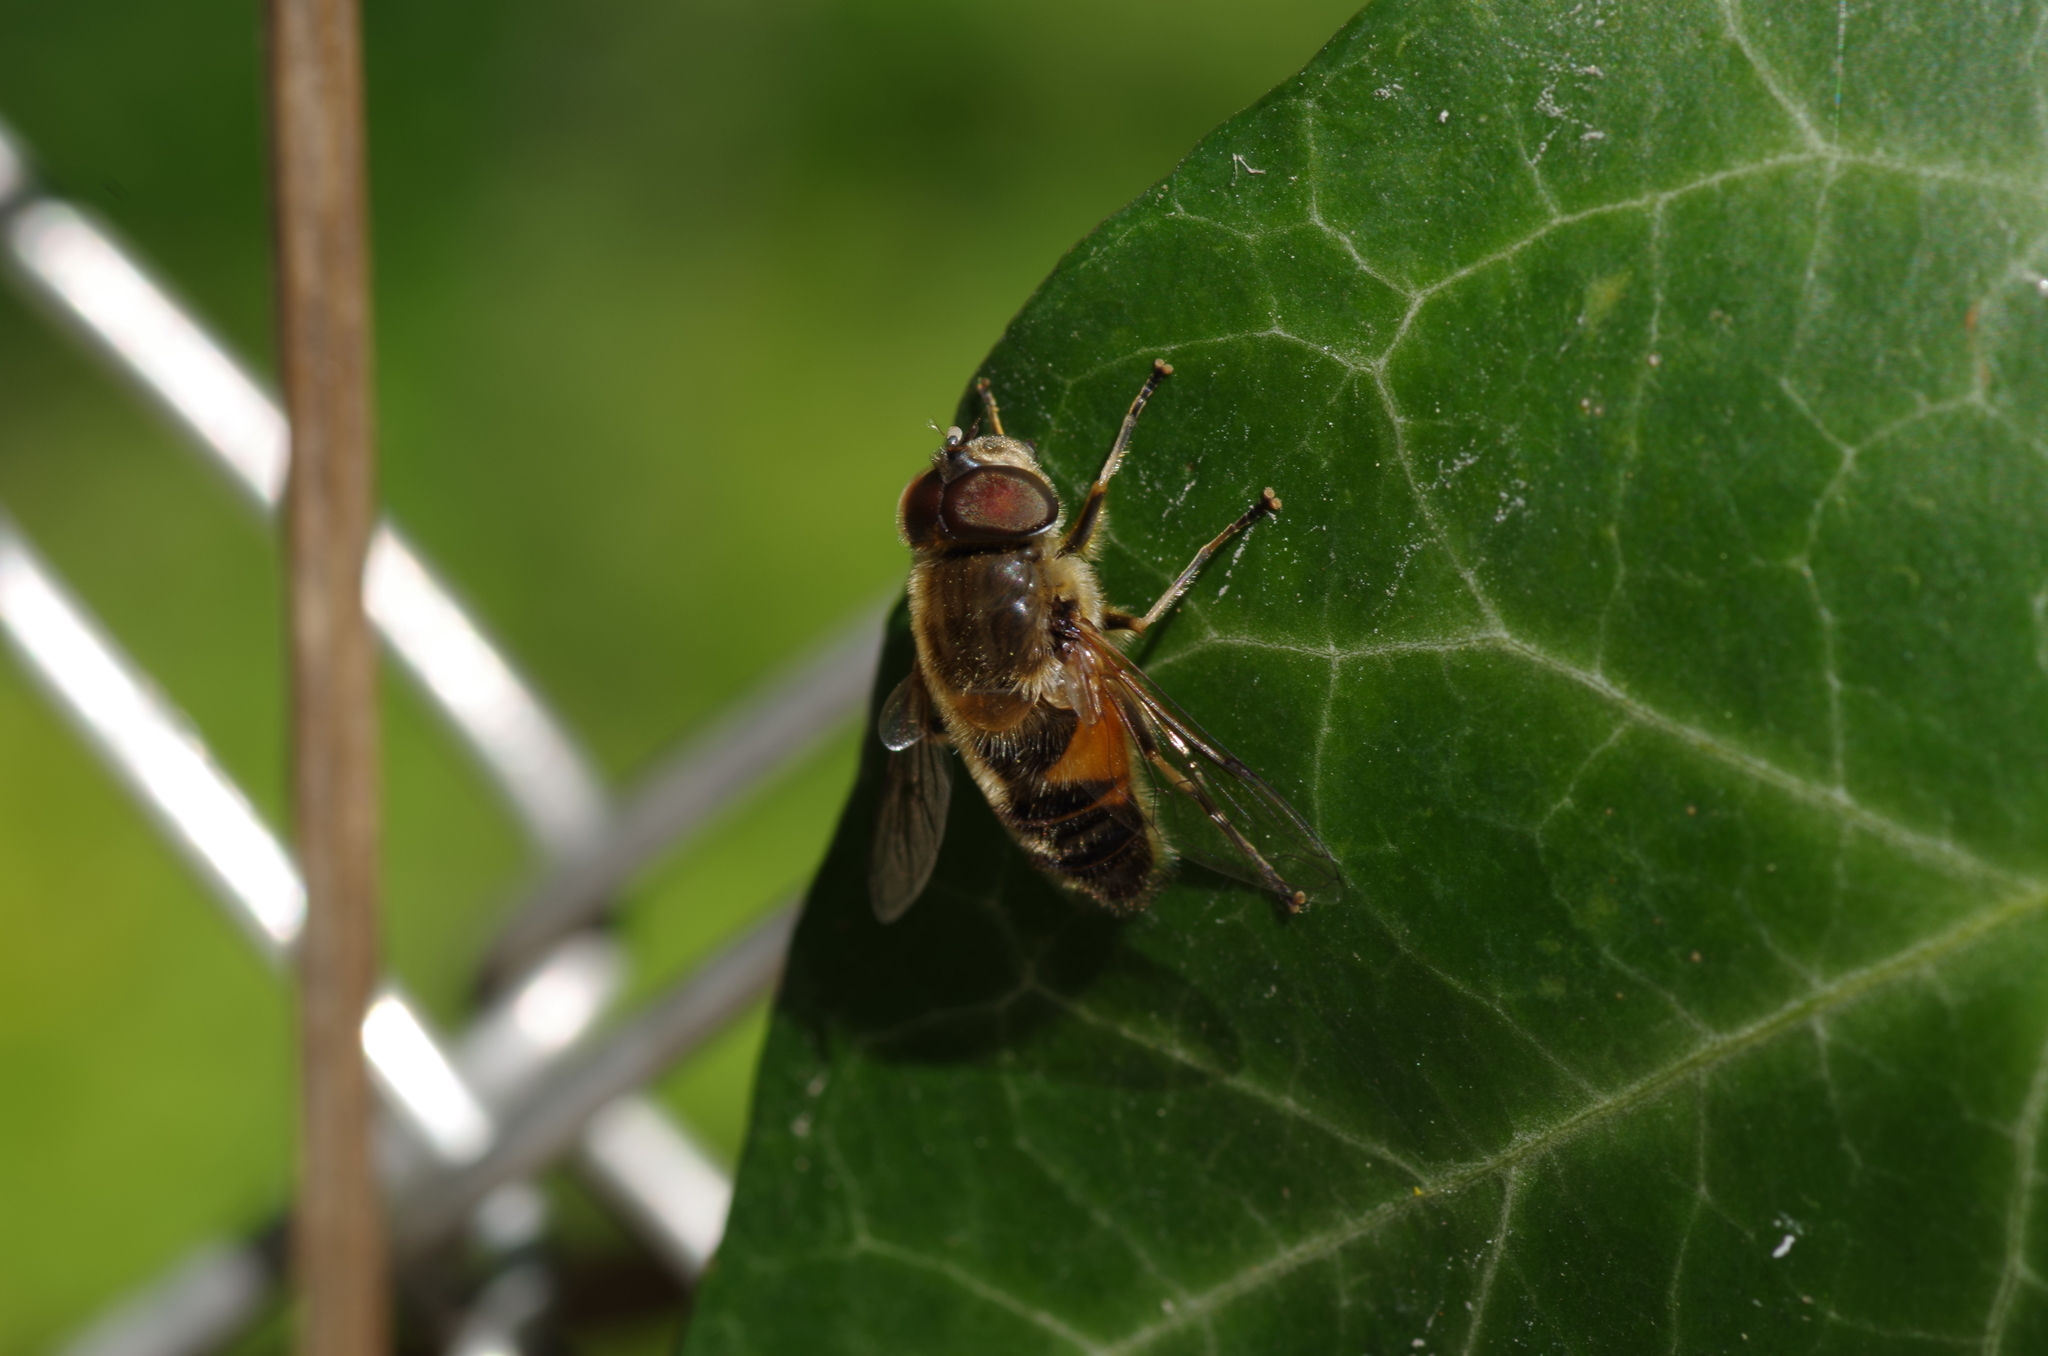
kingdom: Animalia
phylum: Arthropoda
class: Insecta
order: Diptera
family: Syrphidae
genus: Eristalis
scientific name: Eristalis pertinax
